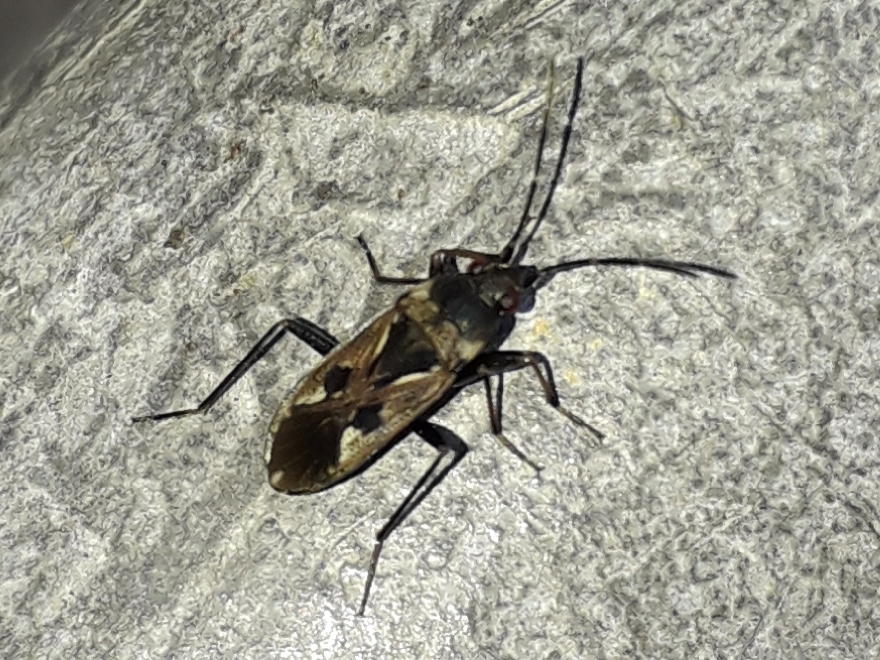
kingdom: Animalia
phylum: Arthropoda
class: Insecta
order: Hemiptera
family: Rhyparochromidae
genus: Rhyparochromus
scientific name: Rhyparochromus vulgaris
